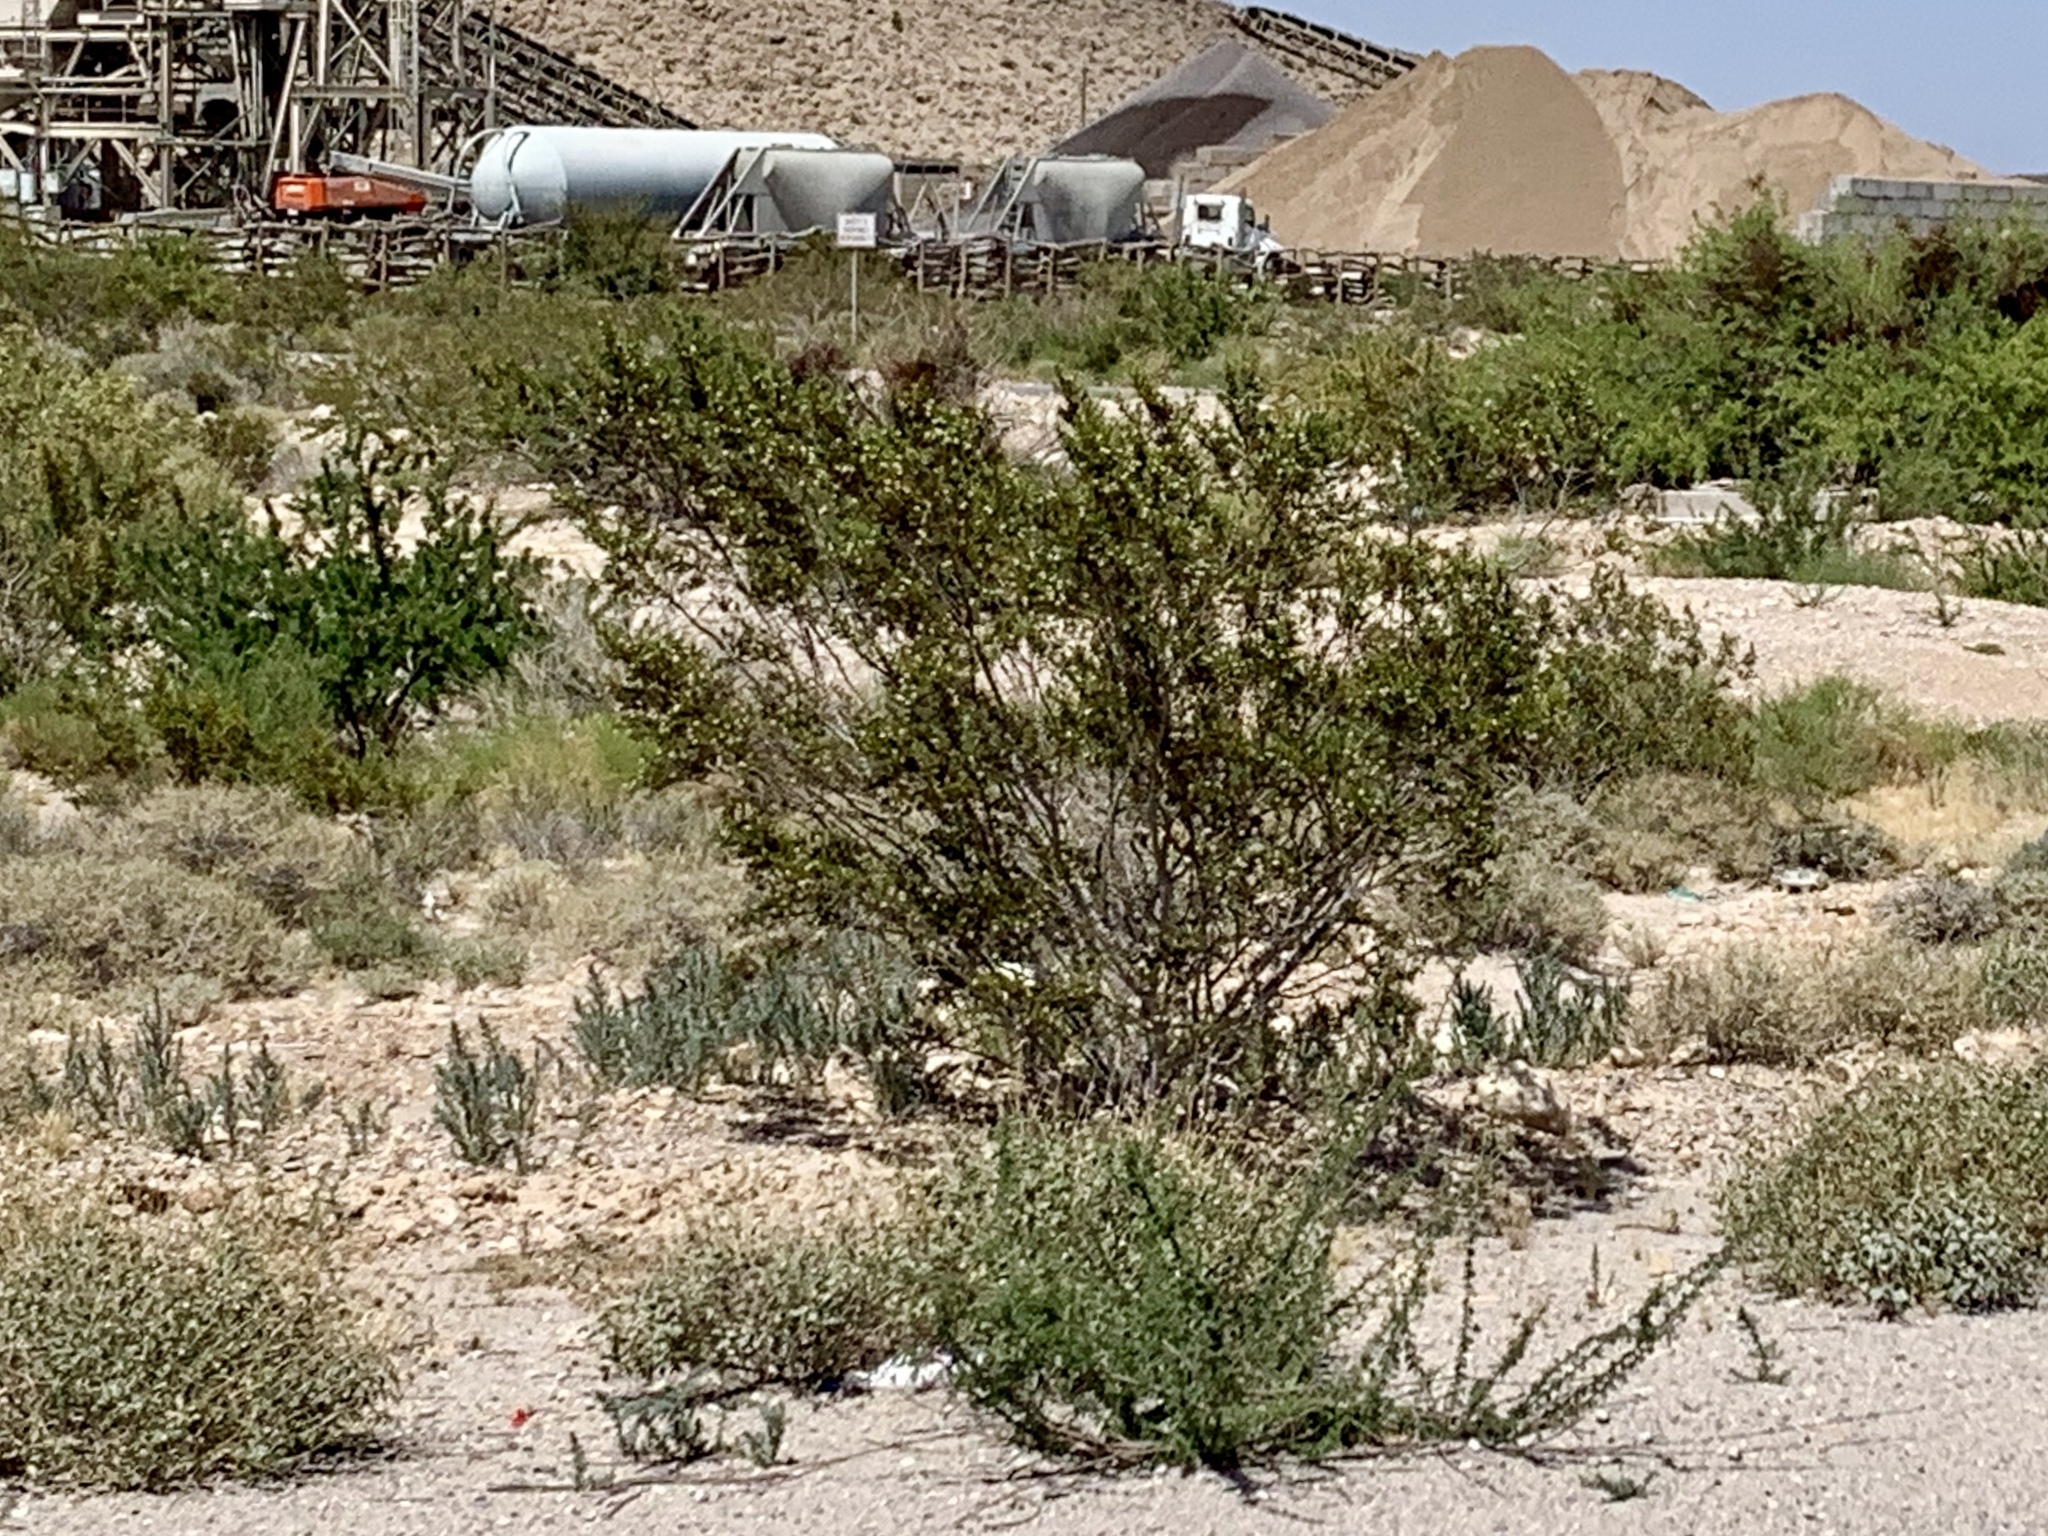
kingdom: Plantae
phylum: Tracheophyta
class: Magnoliopsida
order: Zygophyllales
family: Zygophyllaceae
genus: Larrea
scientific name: Larrea tridentata
